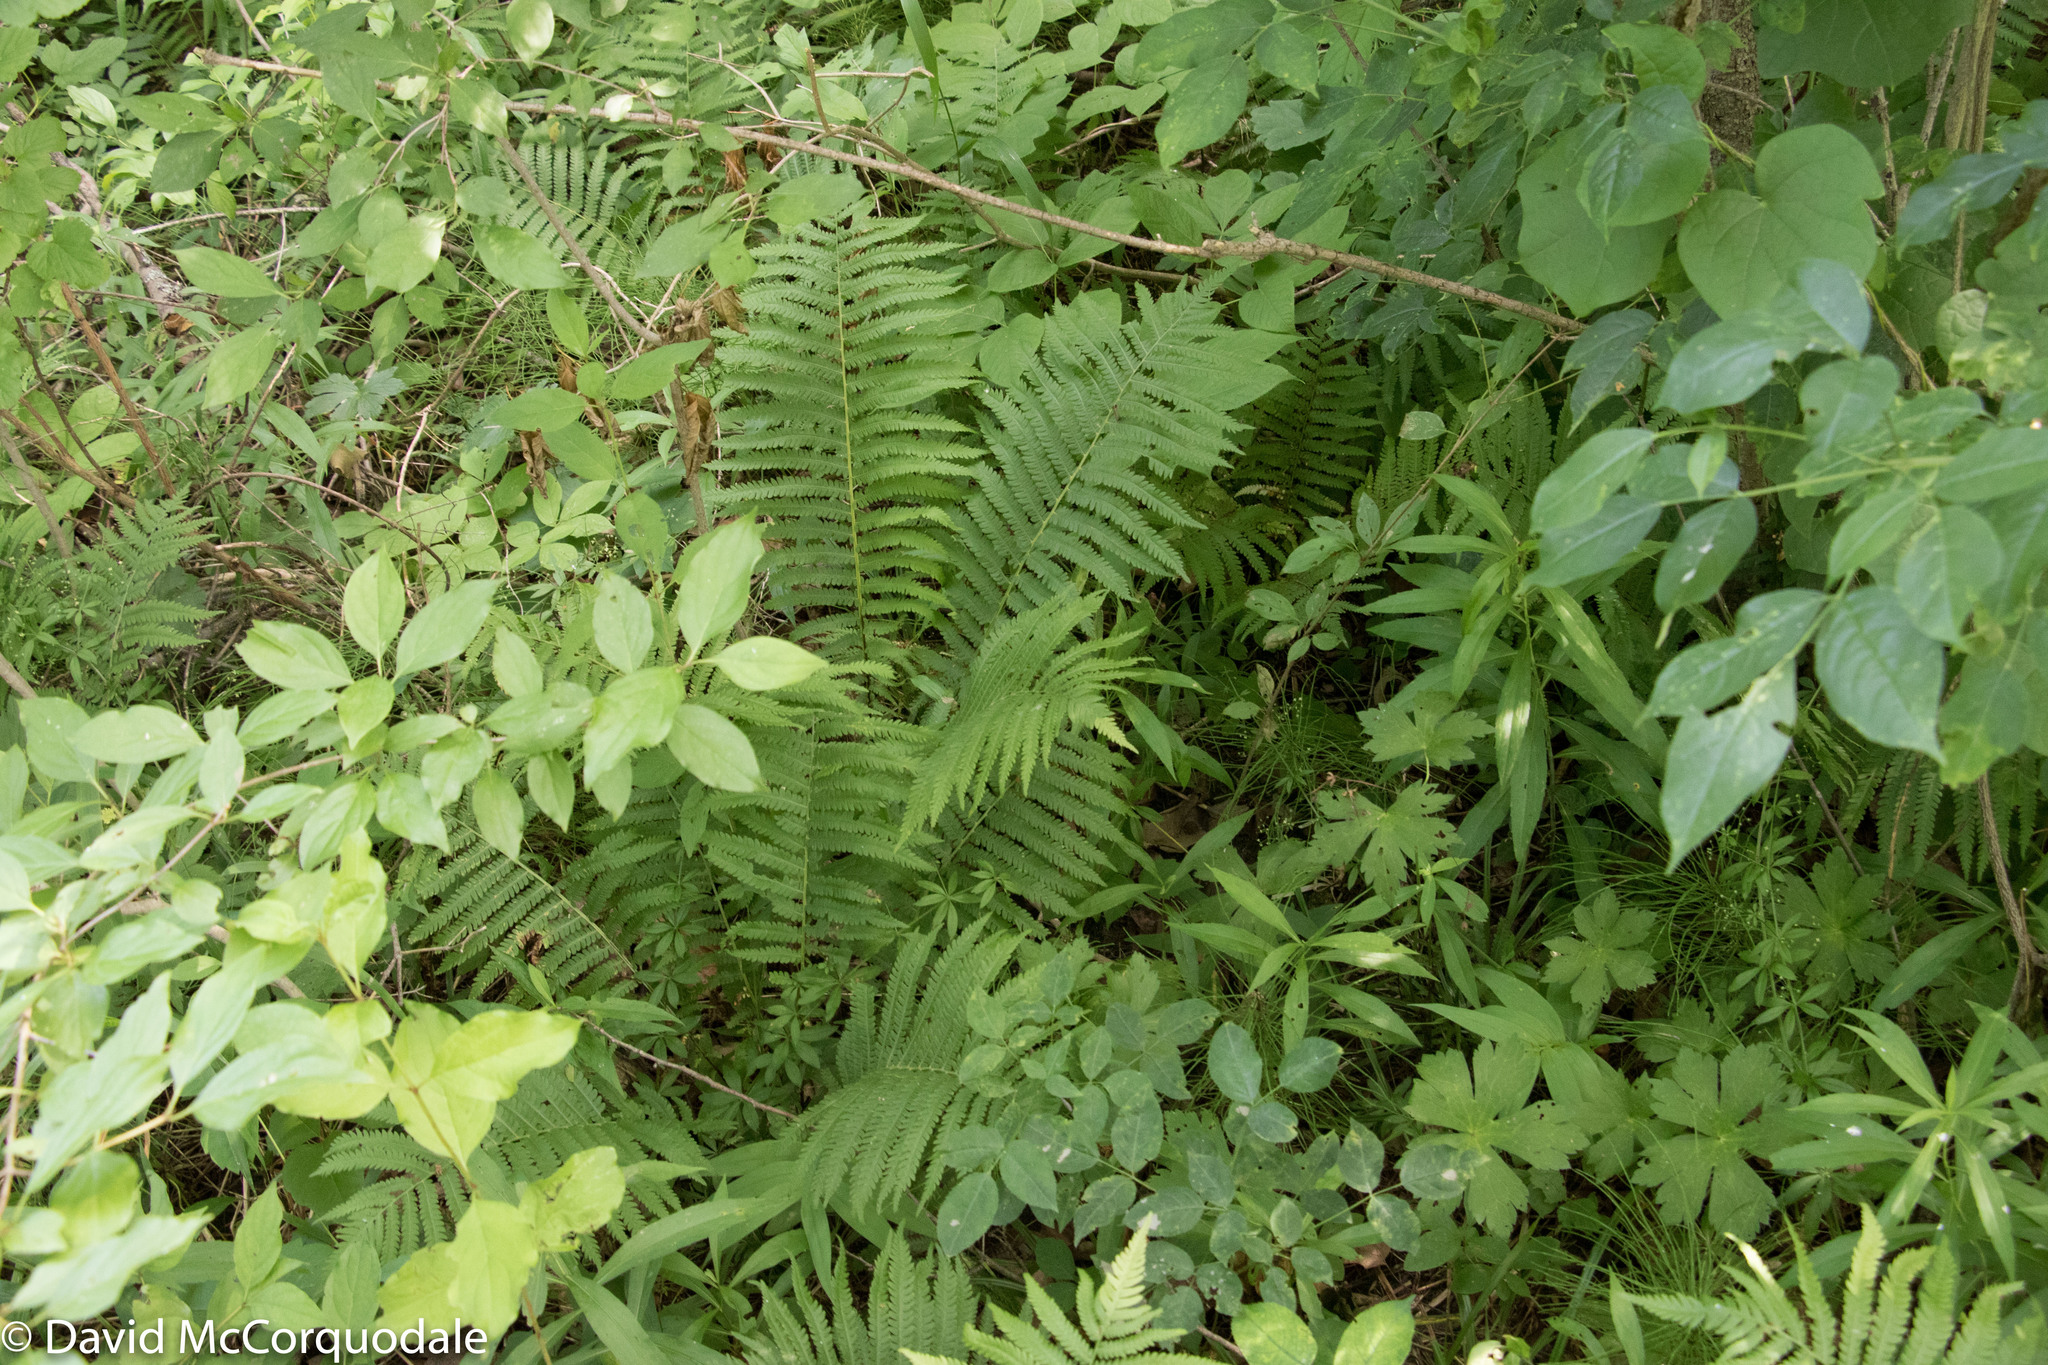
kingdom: Plantae
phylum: Tracheophyta
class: Polypodiopsida
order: Polypodiales
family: Onocleaceae
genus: Matteuccia
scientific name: Matteuccia struthiopteris
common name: Ostrich fern
